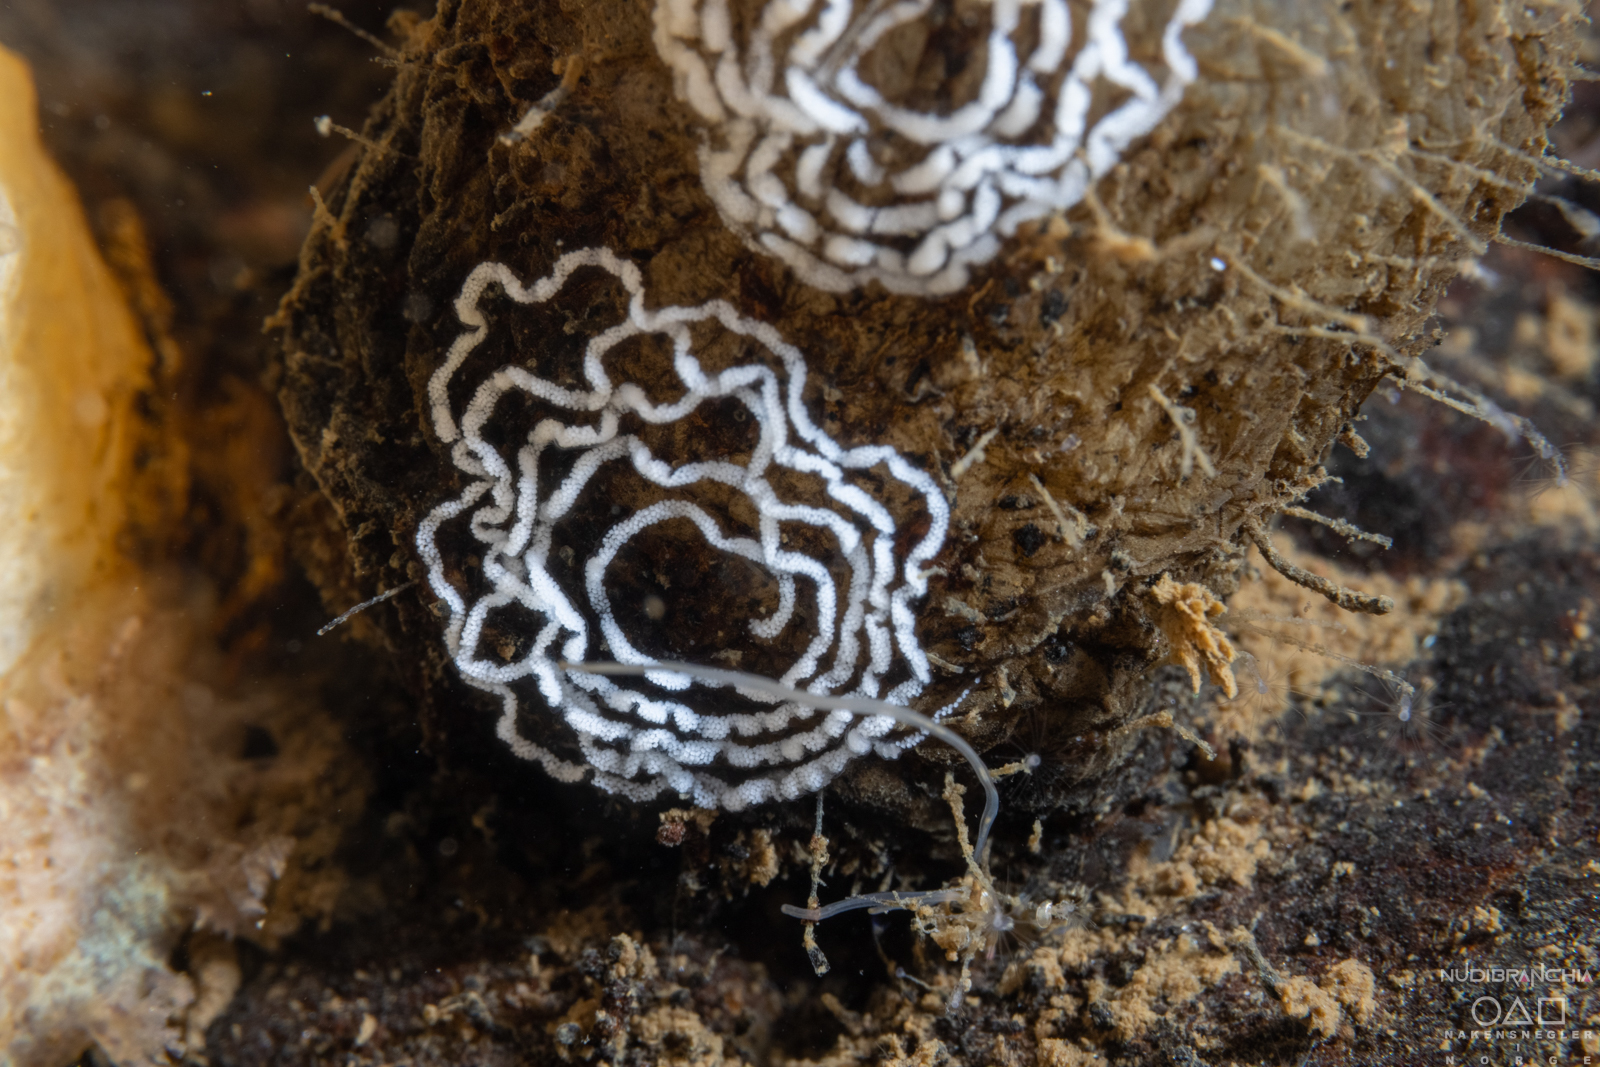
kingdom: Animalia
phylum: Mollusca
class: Gastropoda
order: Nudibranchia
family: Tritoniidae
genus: Duvaucelia
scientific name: Duvaucelia plebeia
